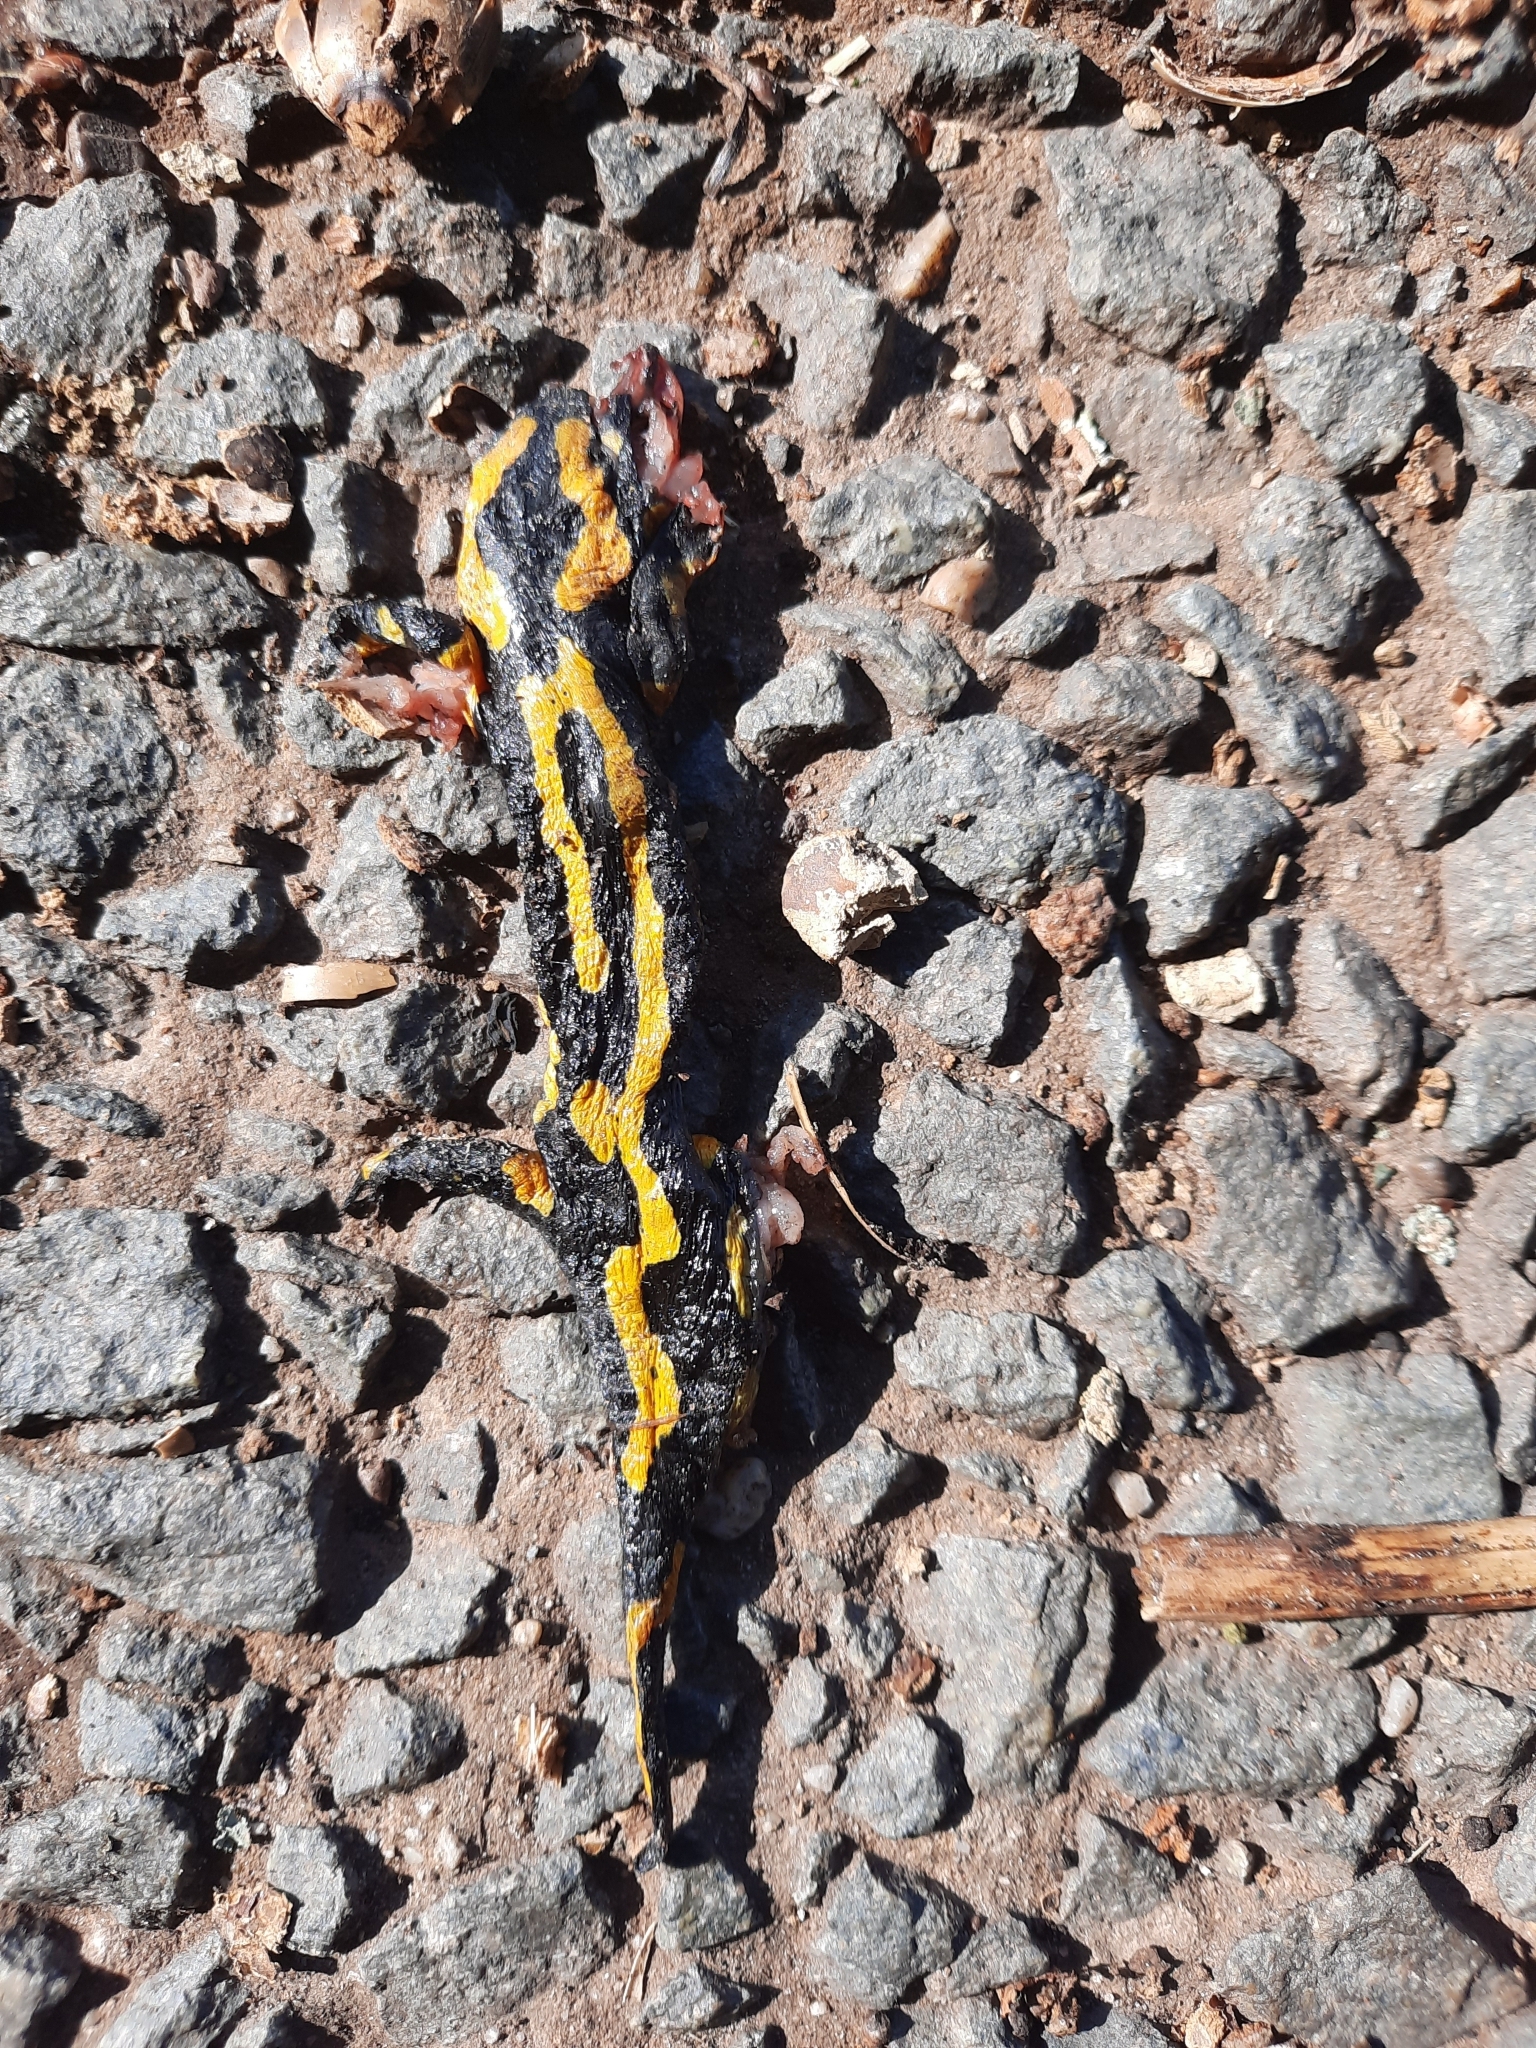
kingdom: Animalia
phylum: Chordata
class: Amphibia
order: Caudata
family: Salamandridae
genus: Salamandra
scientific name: Salamandra salamandra
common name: Fire salamander
